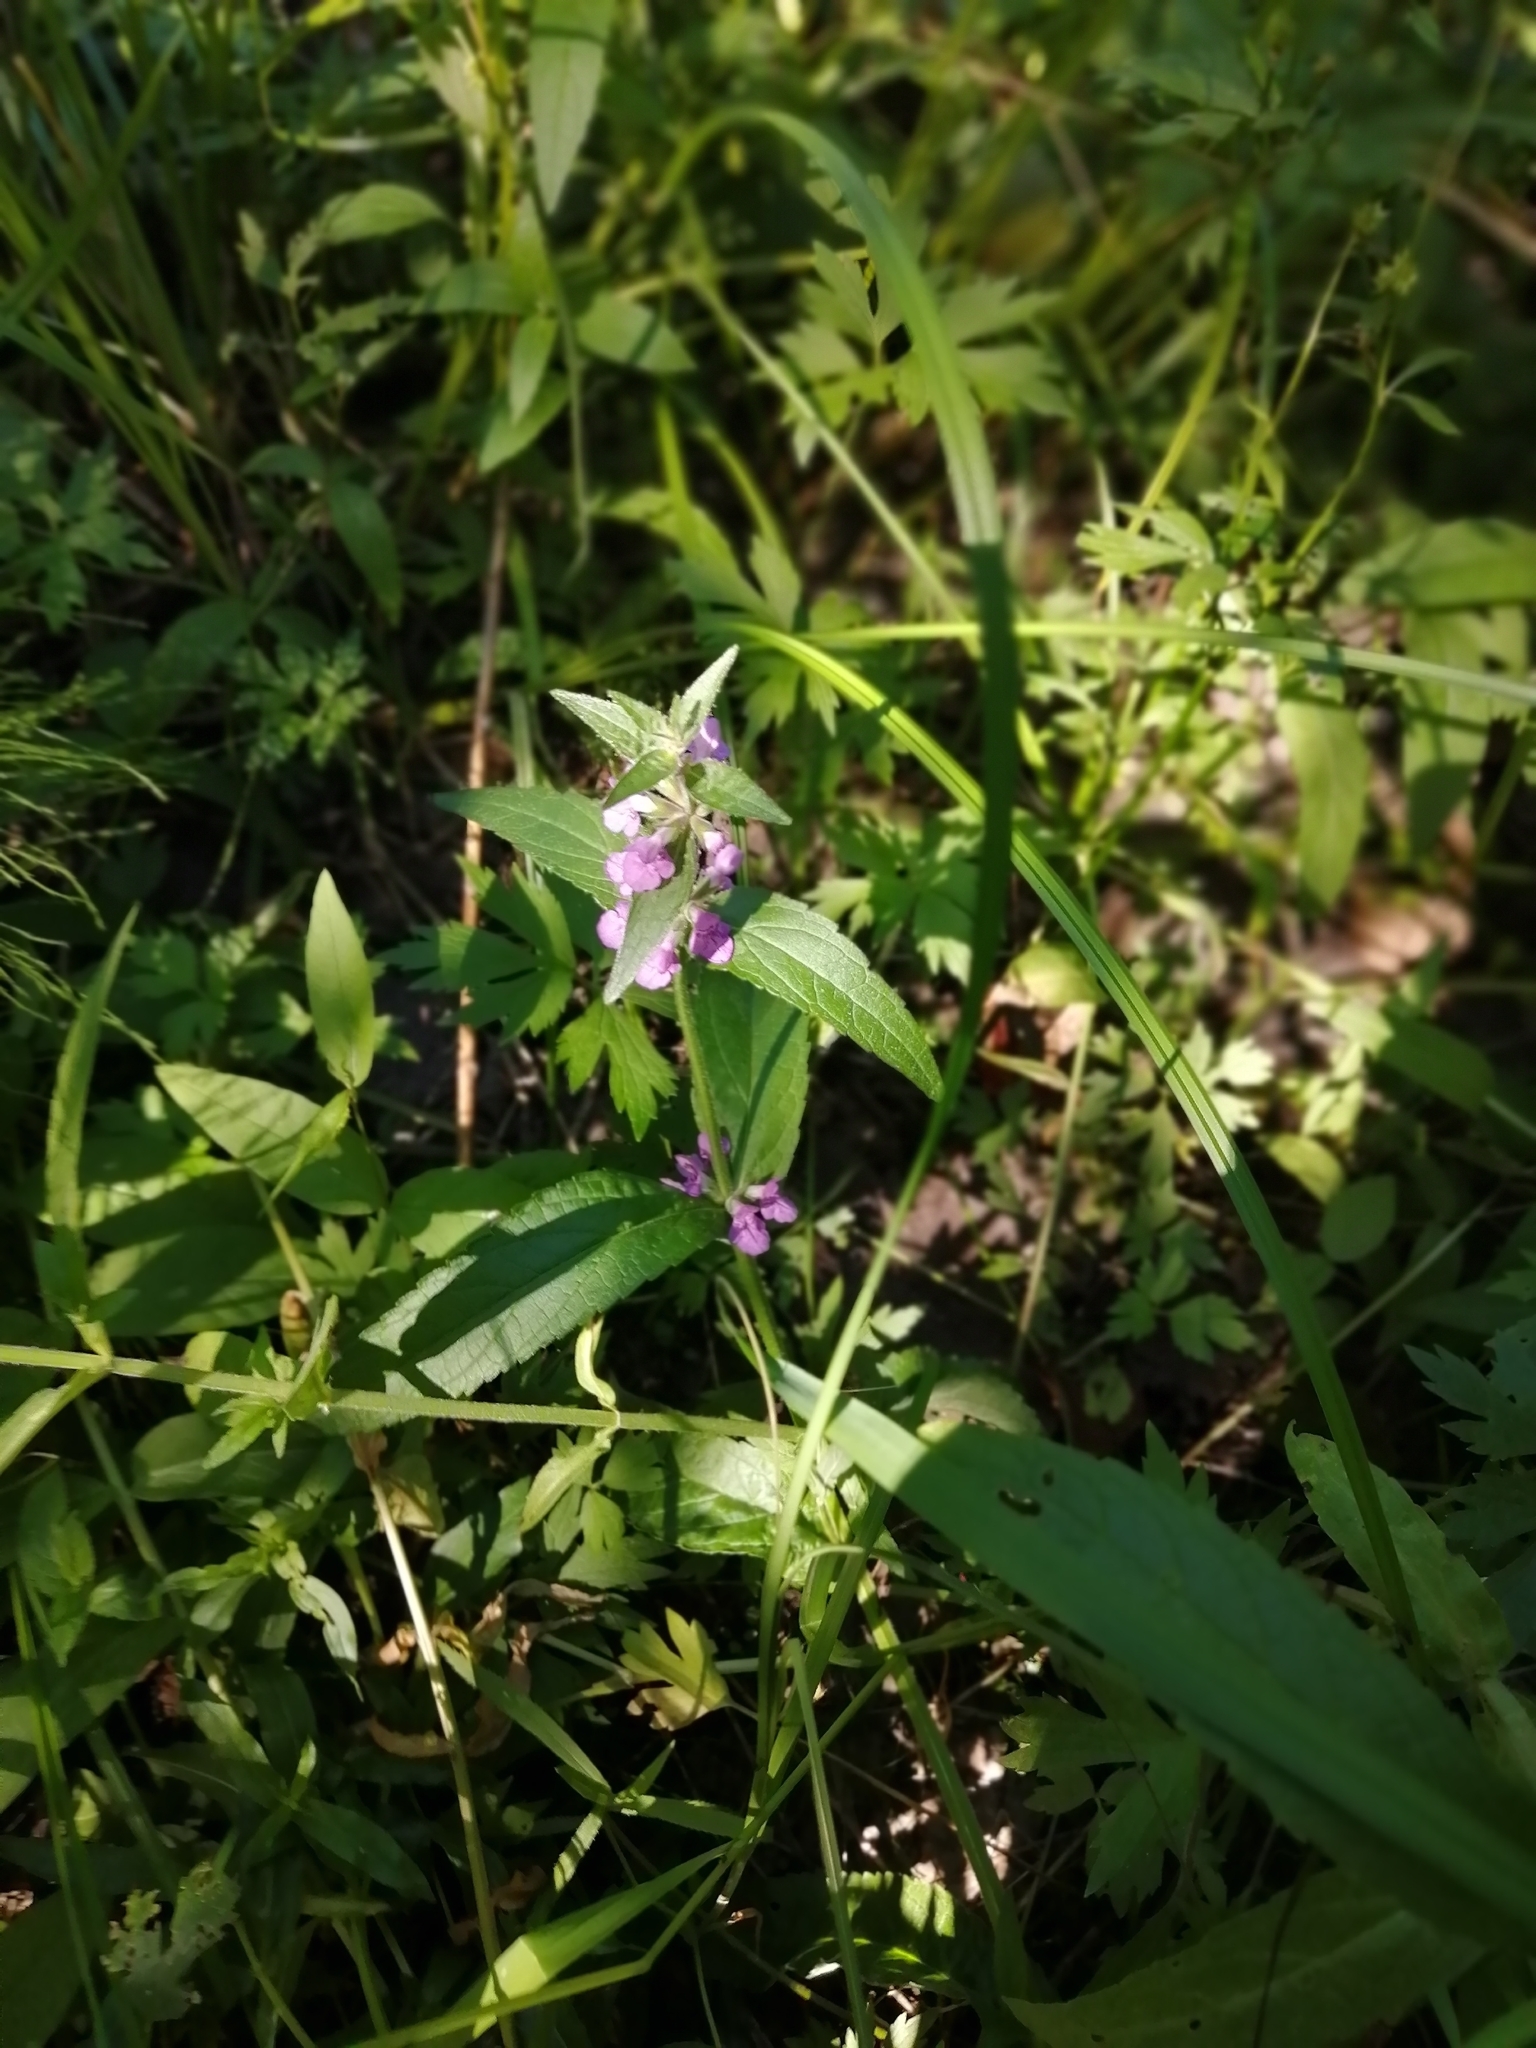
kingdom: Plantae
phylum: Tracheophyta
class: Magnoliopsida
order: Lamiales
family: Lamiaceae
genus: Stachys
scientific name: Stachys palustris
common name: Marsh woundwort
